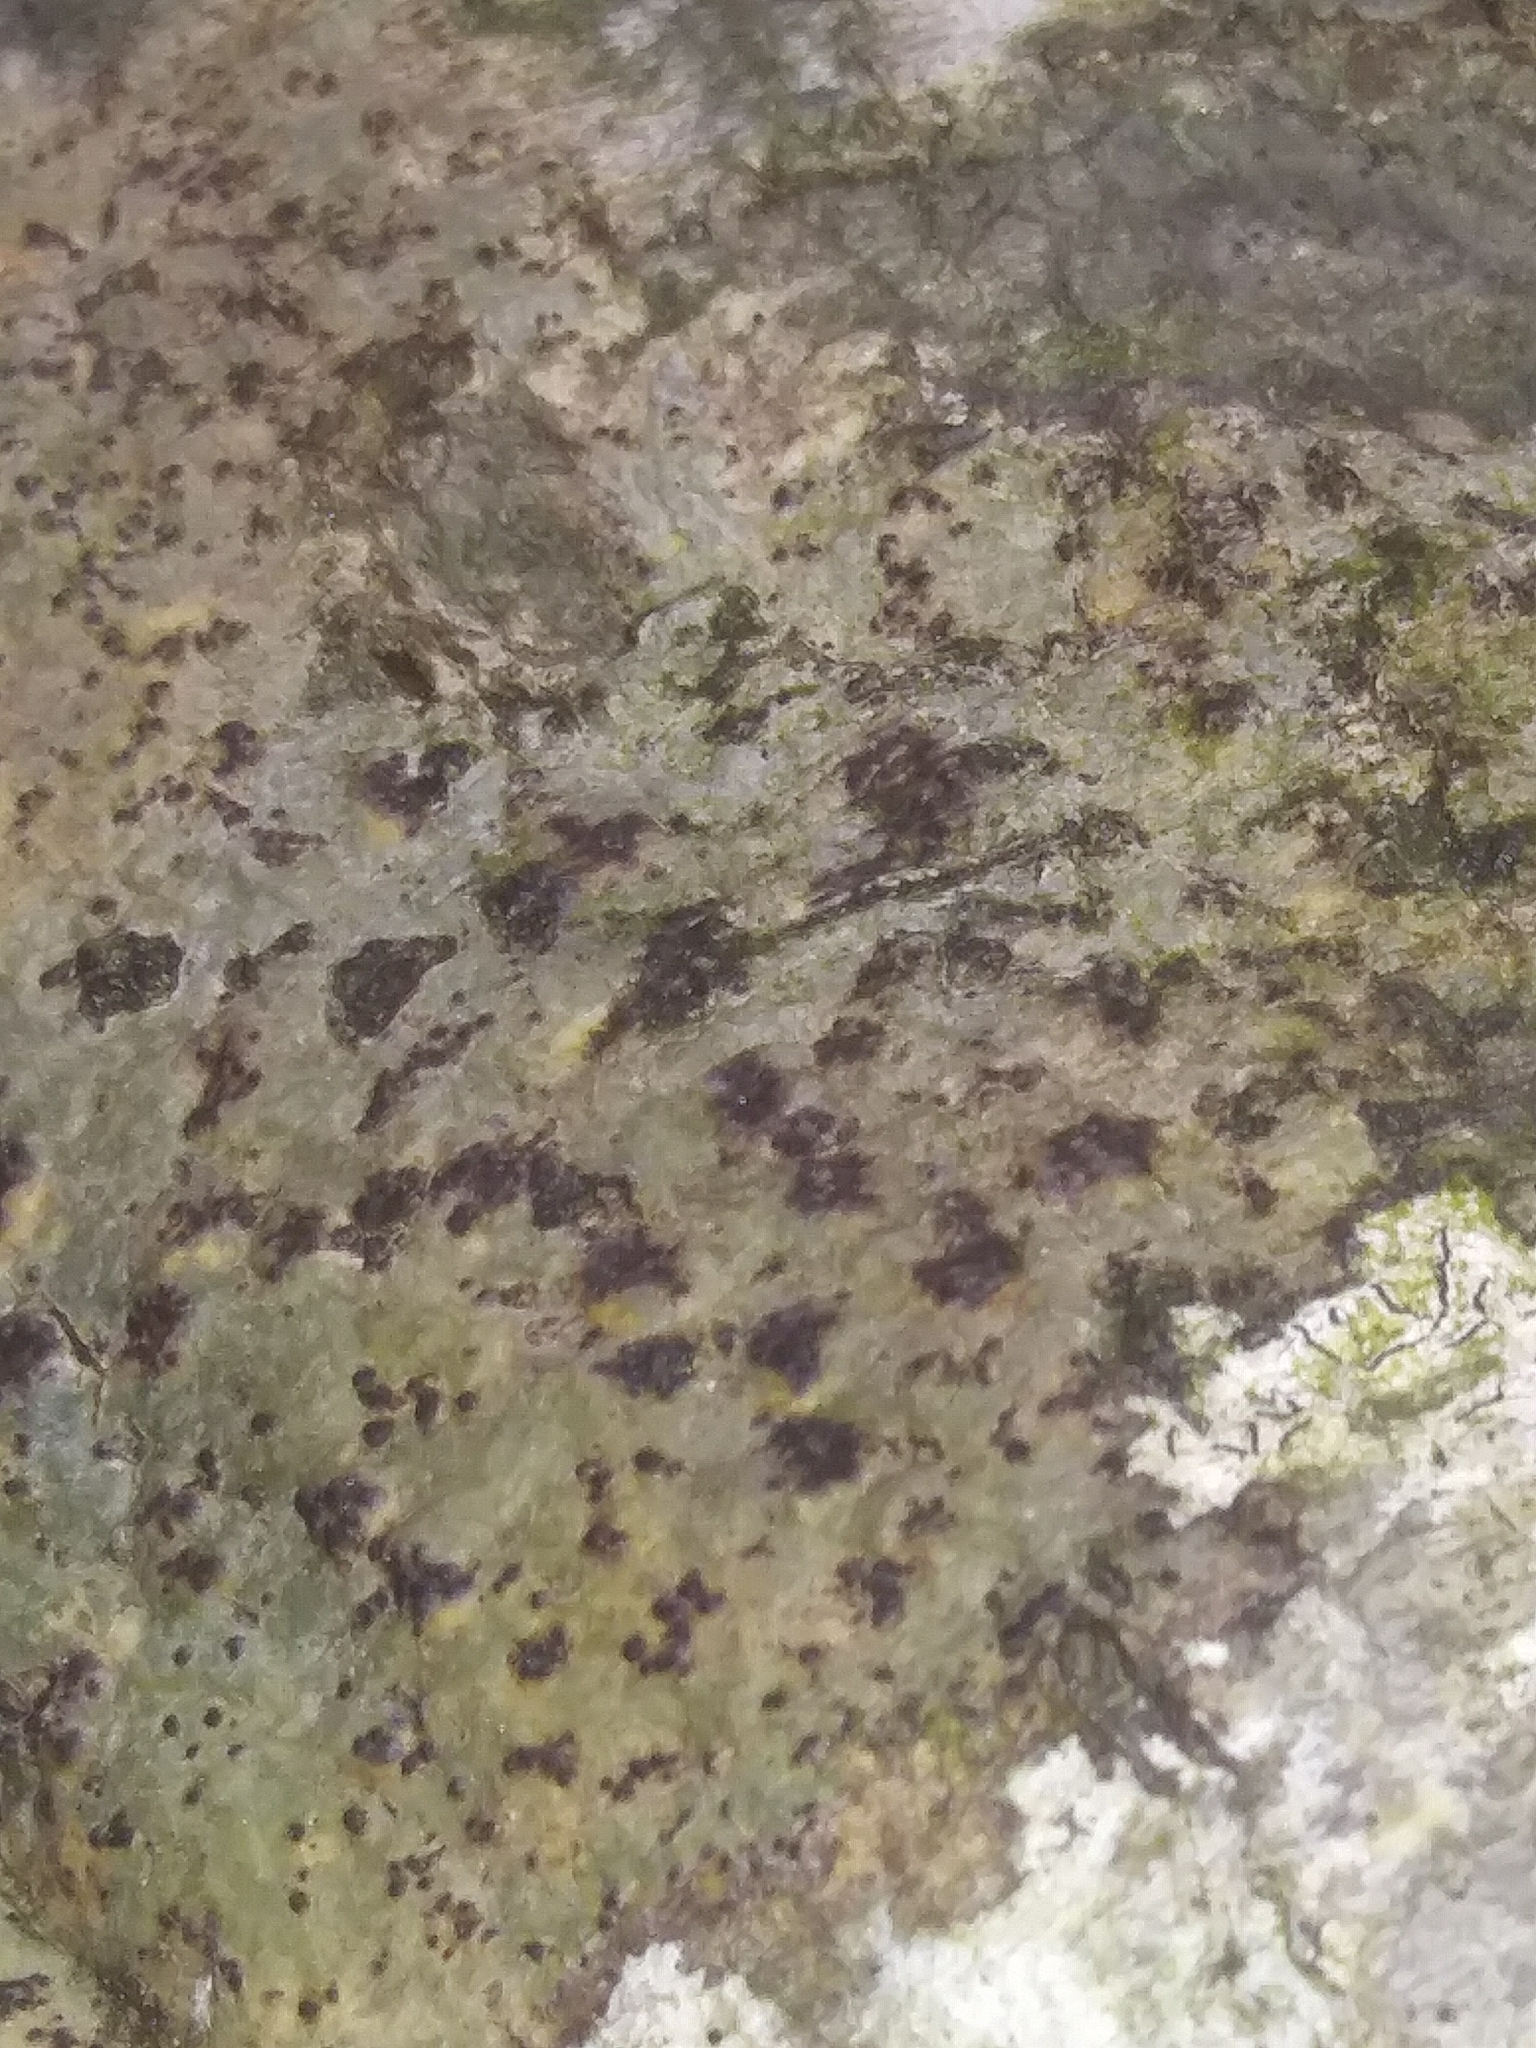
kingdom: Fungi
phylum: Ascomycota
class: Dothideomycetes
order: Trypetheliales
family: Trypetheliaceae
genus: Viridothelium
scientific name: Viridothelium virens
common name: Speckled blister lichen
